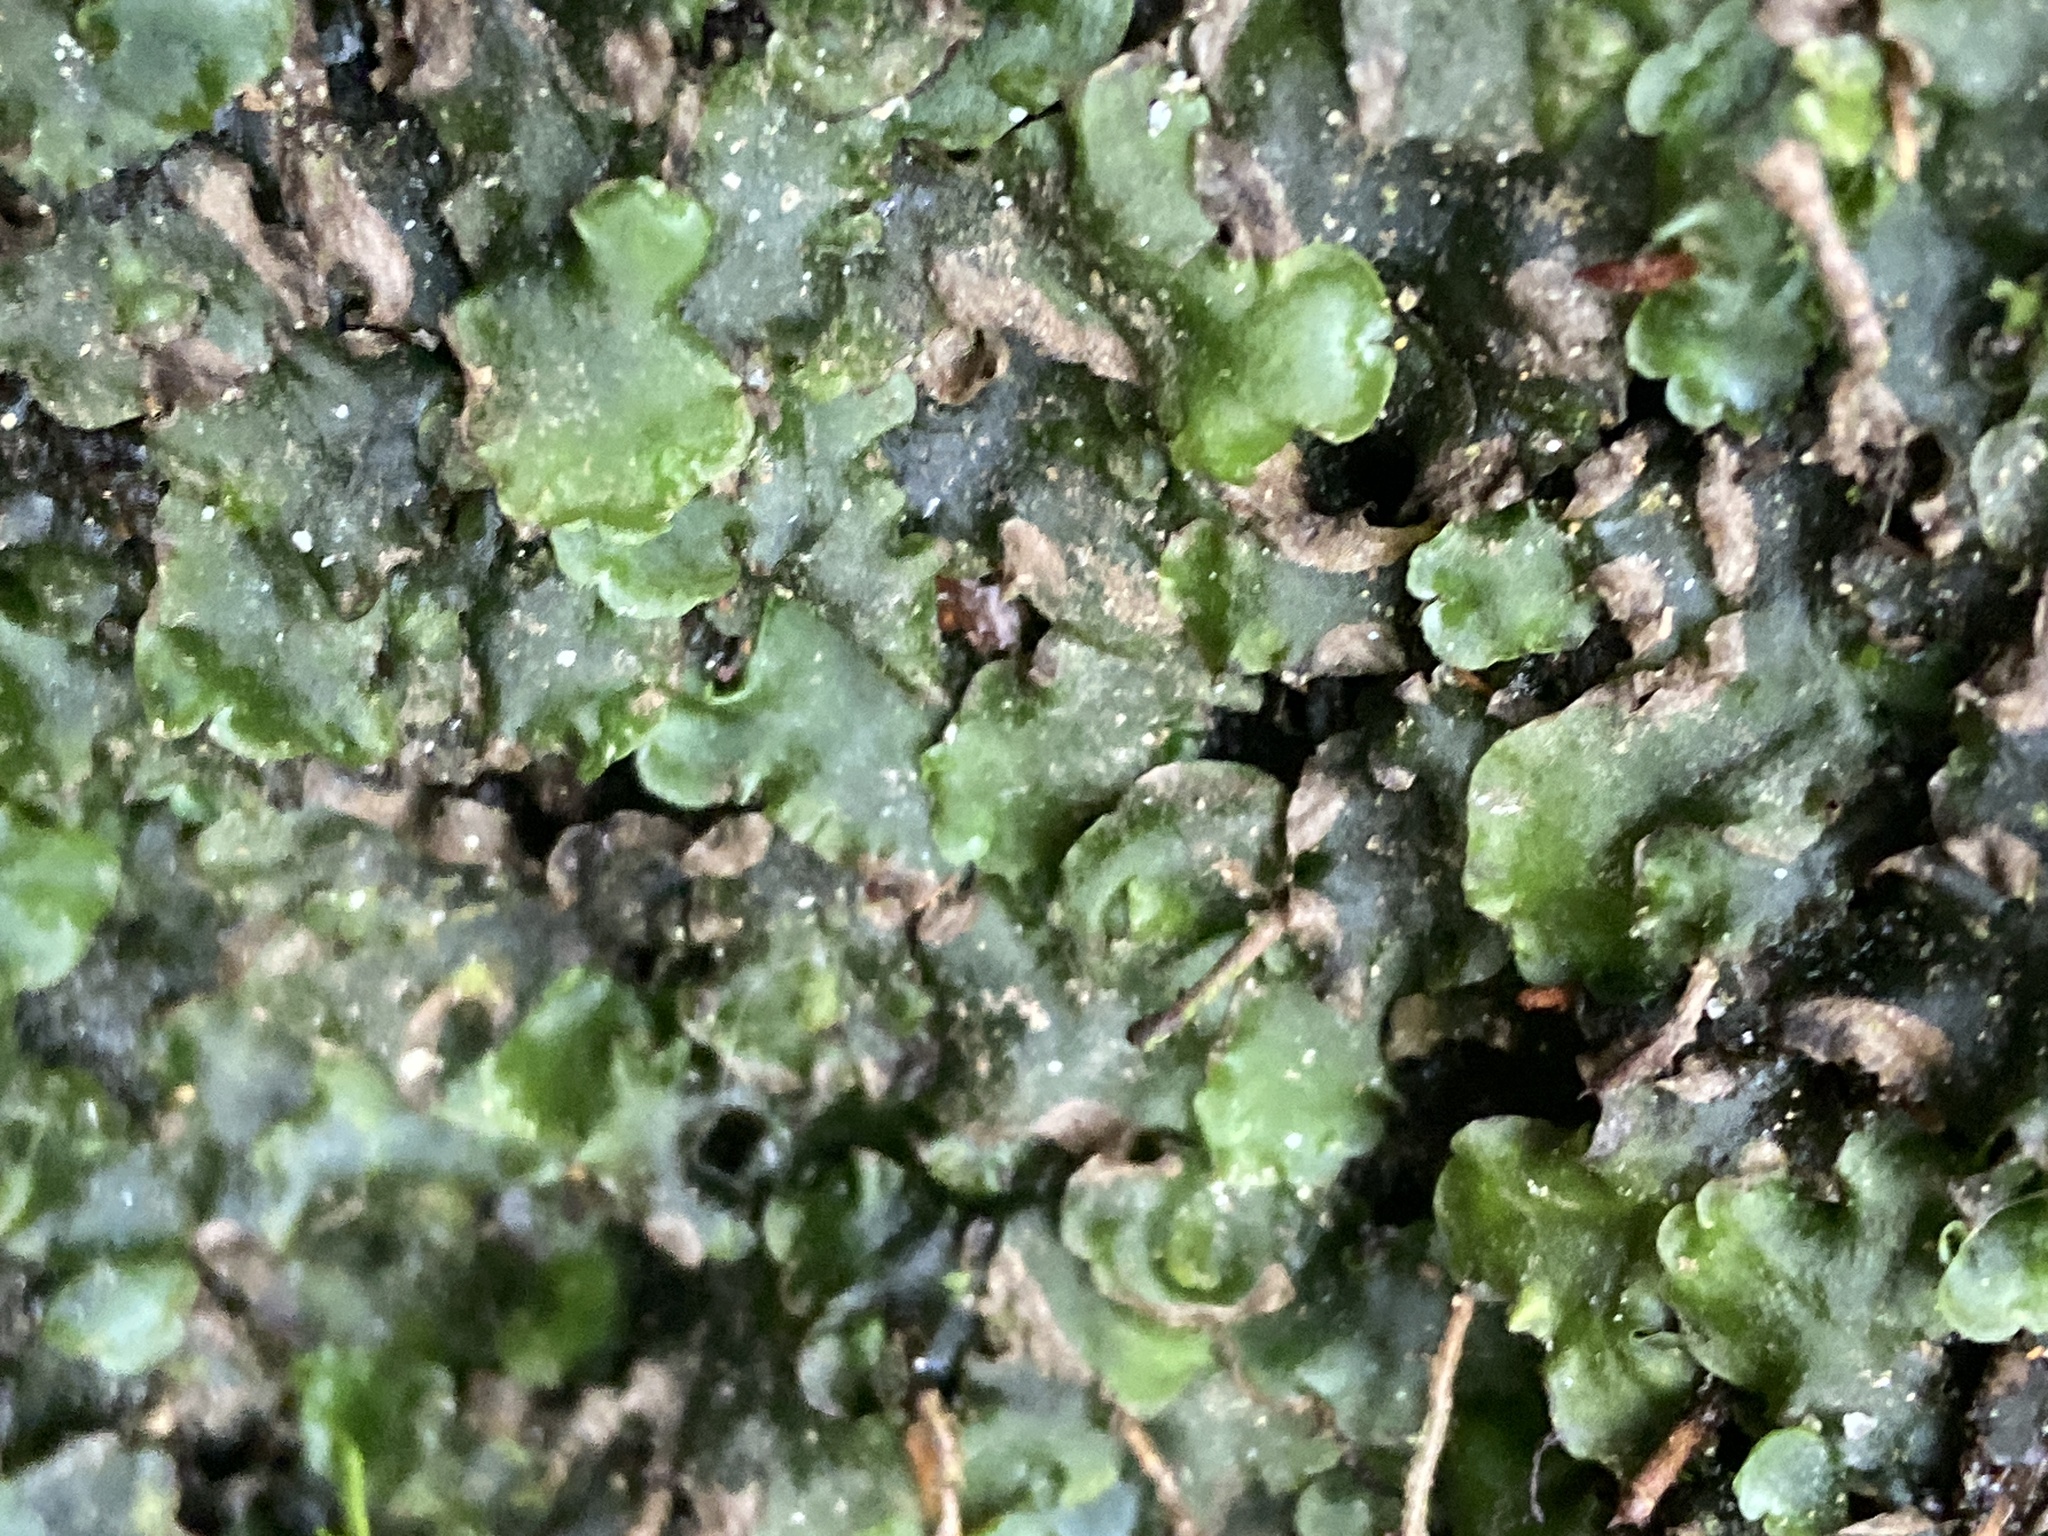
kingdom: Plantae
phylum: Marchantiophyta
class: Jungermanniopsida
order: Pelliales
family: Pelliaceae
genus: Pellia
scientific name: Pellia epiphylla
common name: Common pellia
